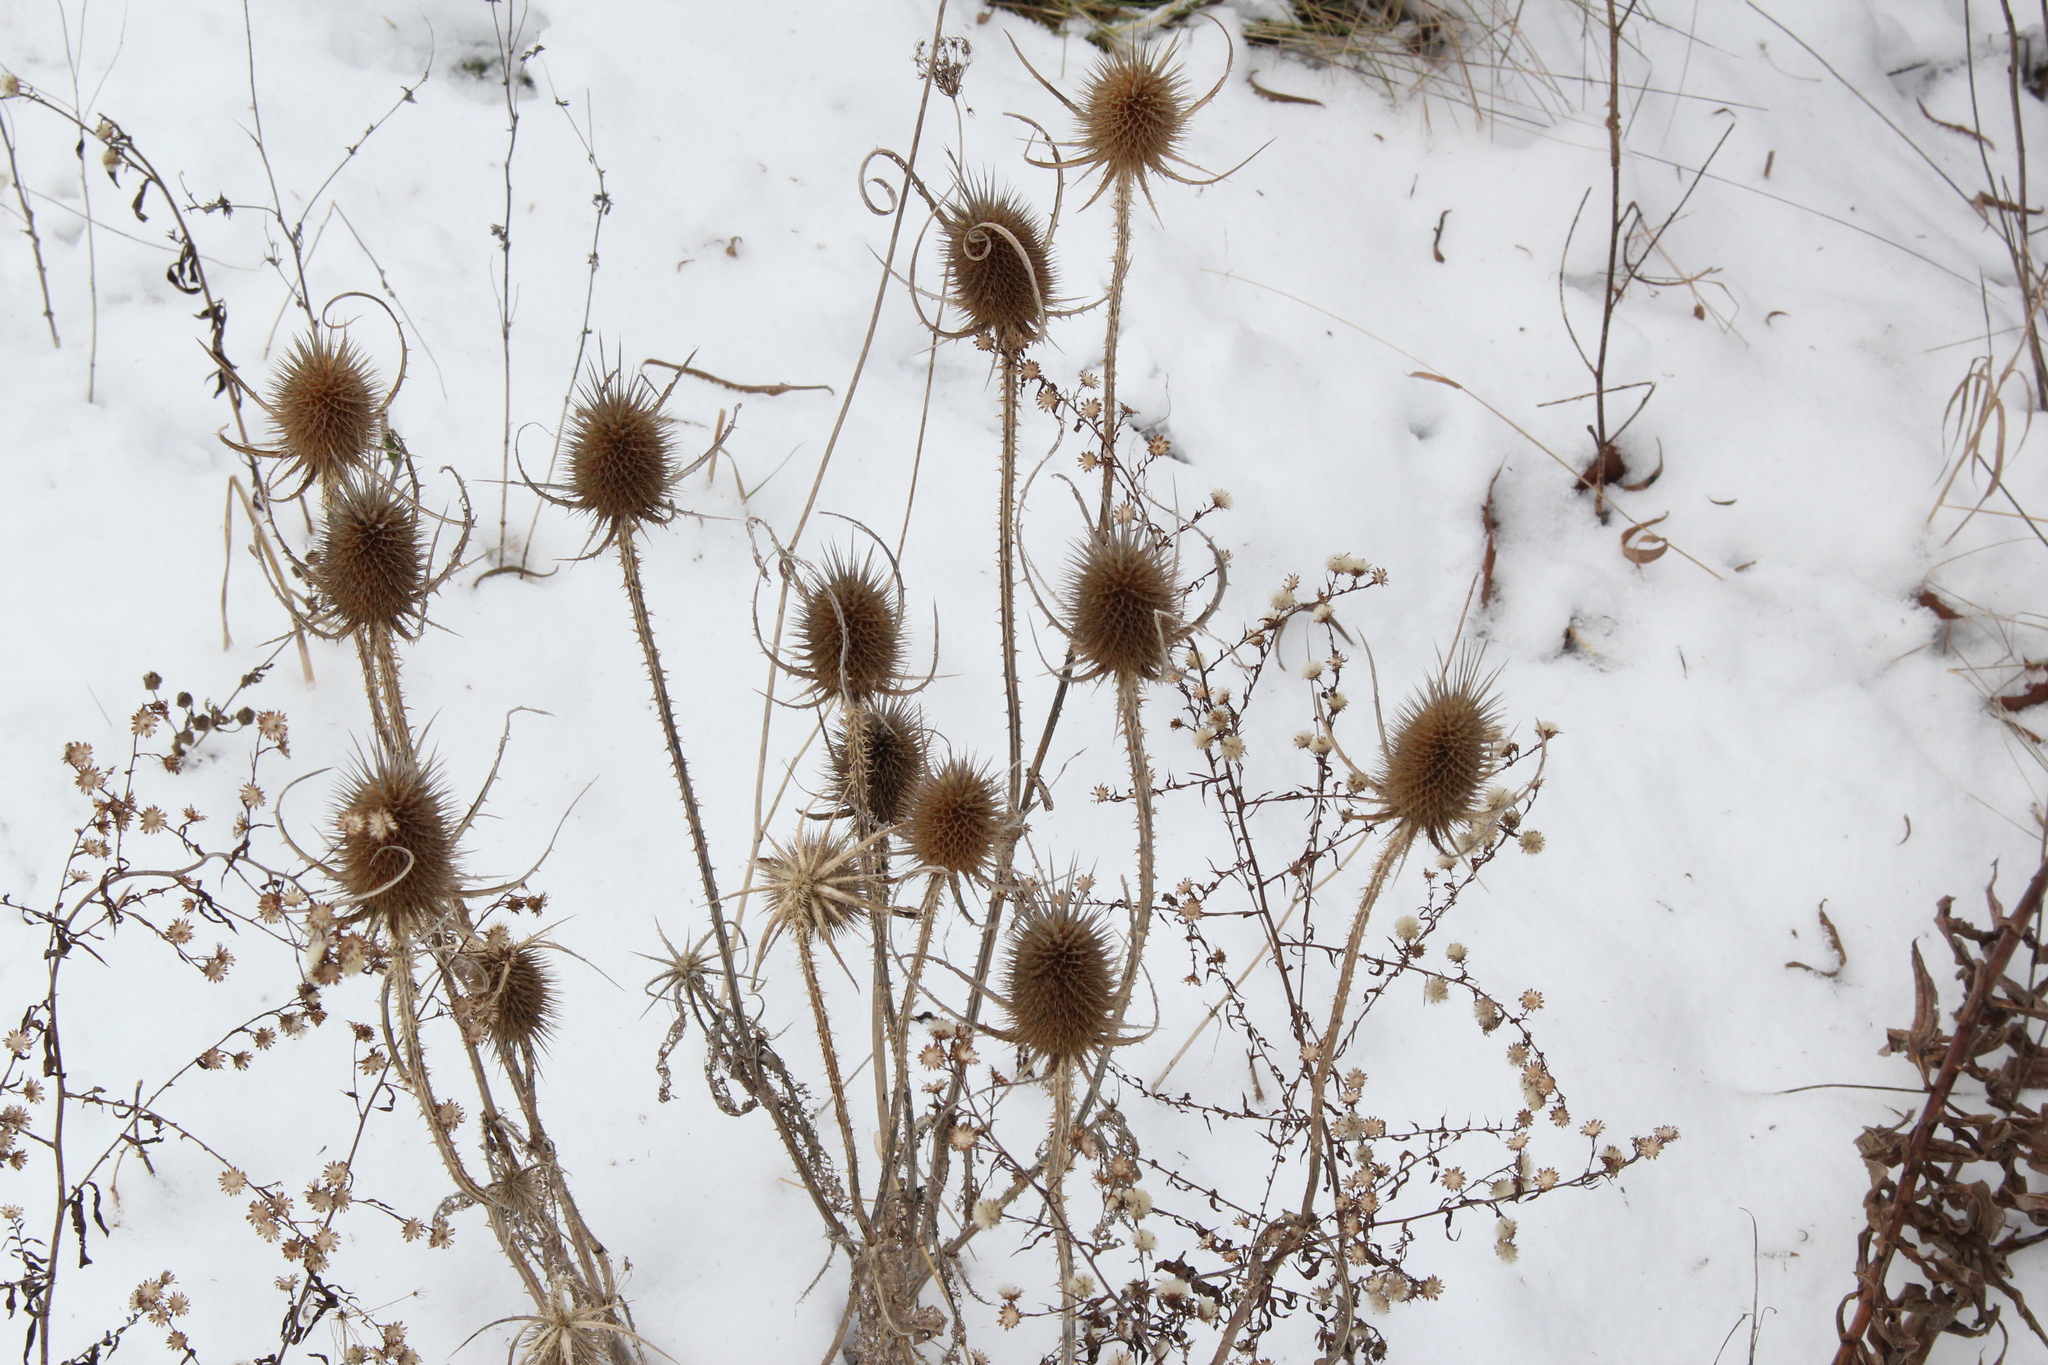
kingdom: Plantae
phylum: Tracheophyta
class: Magnoliopsida
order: Dipsacales
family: Caprifoliaceae
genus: Dipsacus
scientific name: Dipsacus fullonum
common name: Teasel
